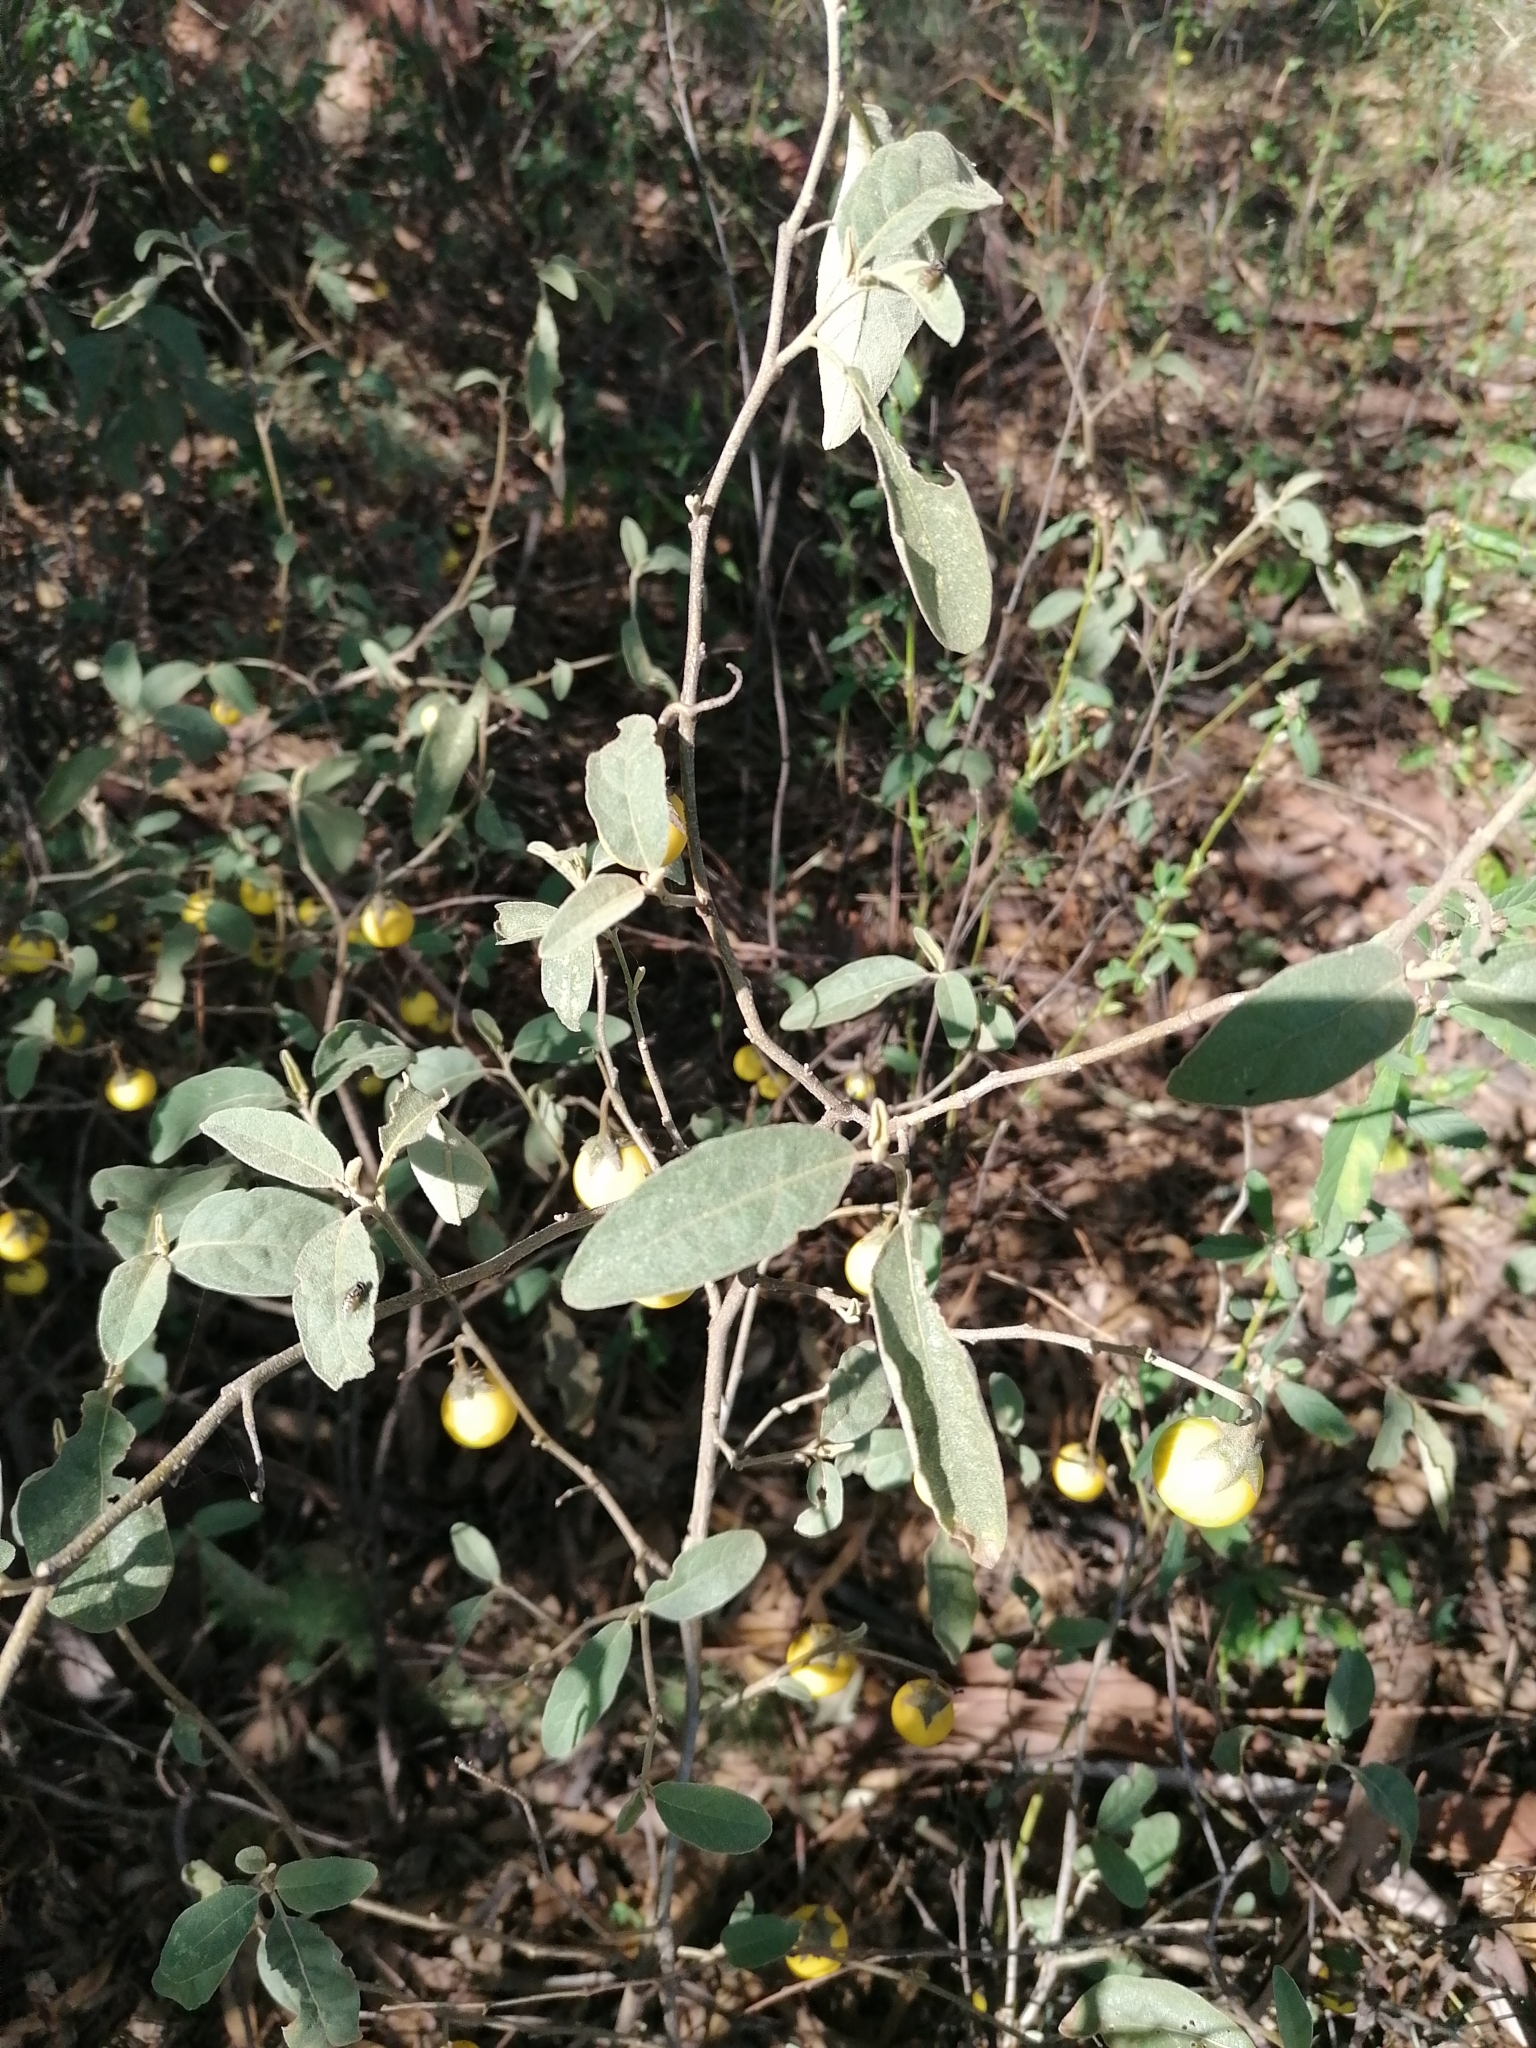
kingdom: Plantae
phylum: Tracheophyta
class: Magnoliopsida
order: Solanales
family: Solanaceae
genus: Solanum
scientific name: Solanum campylacanthum
